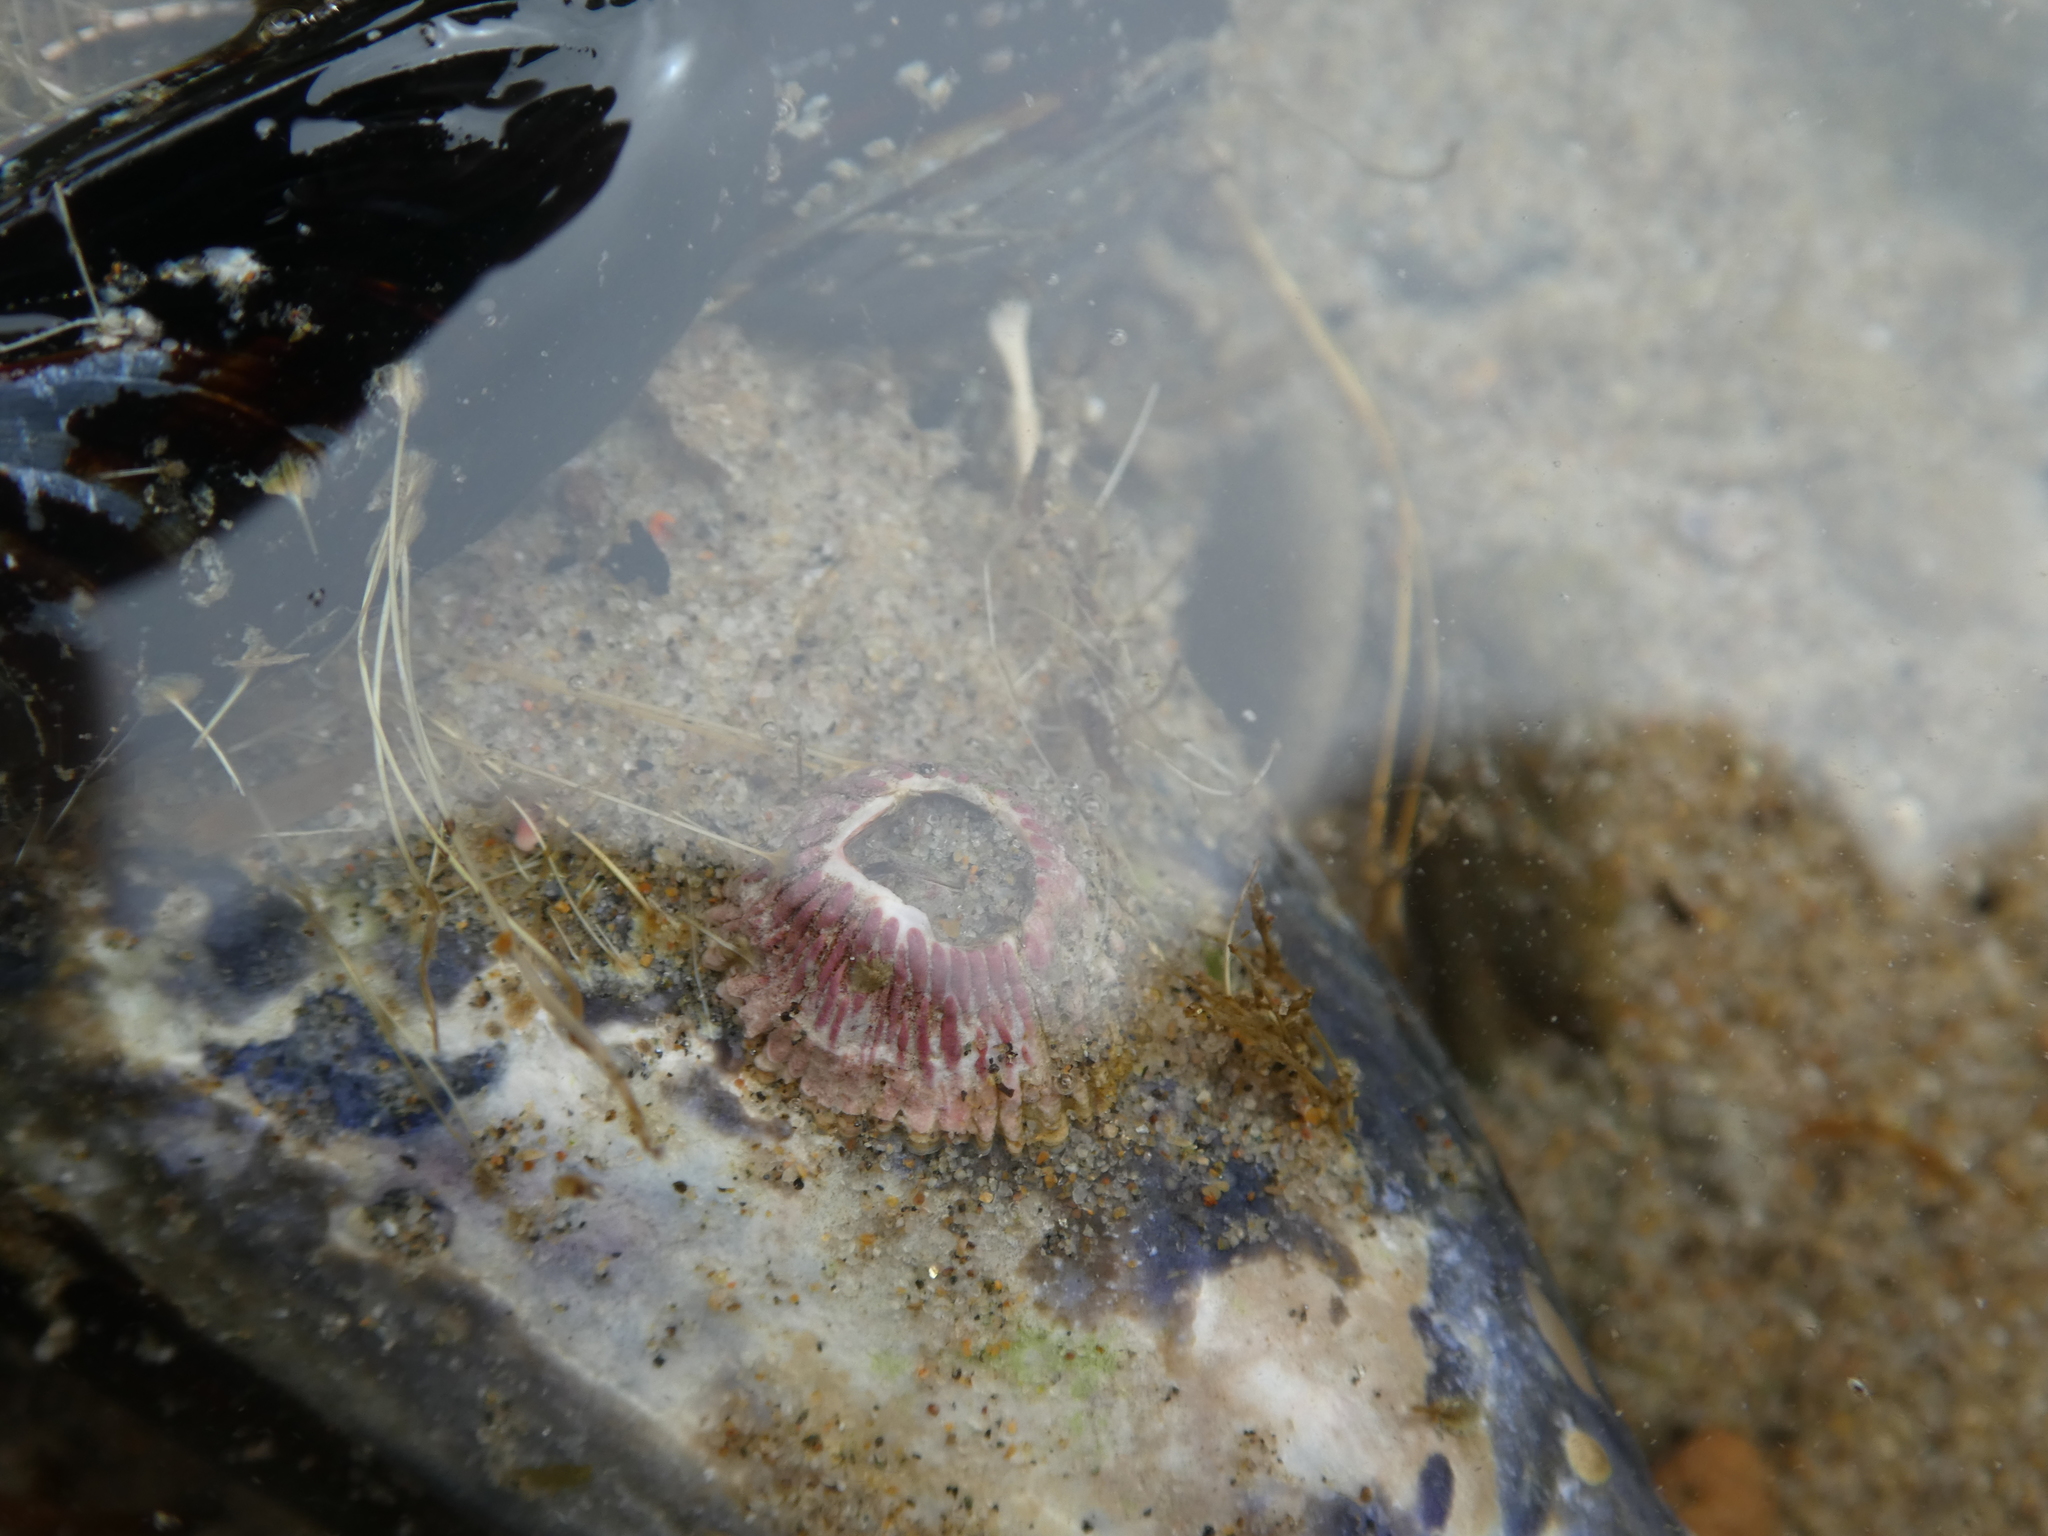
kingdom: Animalia
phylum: Arthropoda
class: Maxillopoda
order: Sessilia
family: Tetraclitidae
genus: Tetraclita
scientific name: Tetraclita rubescens
